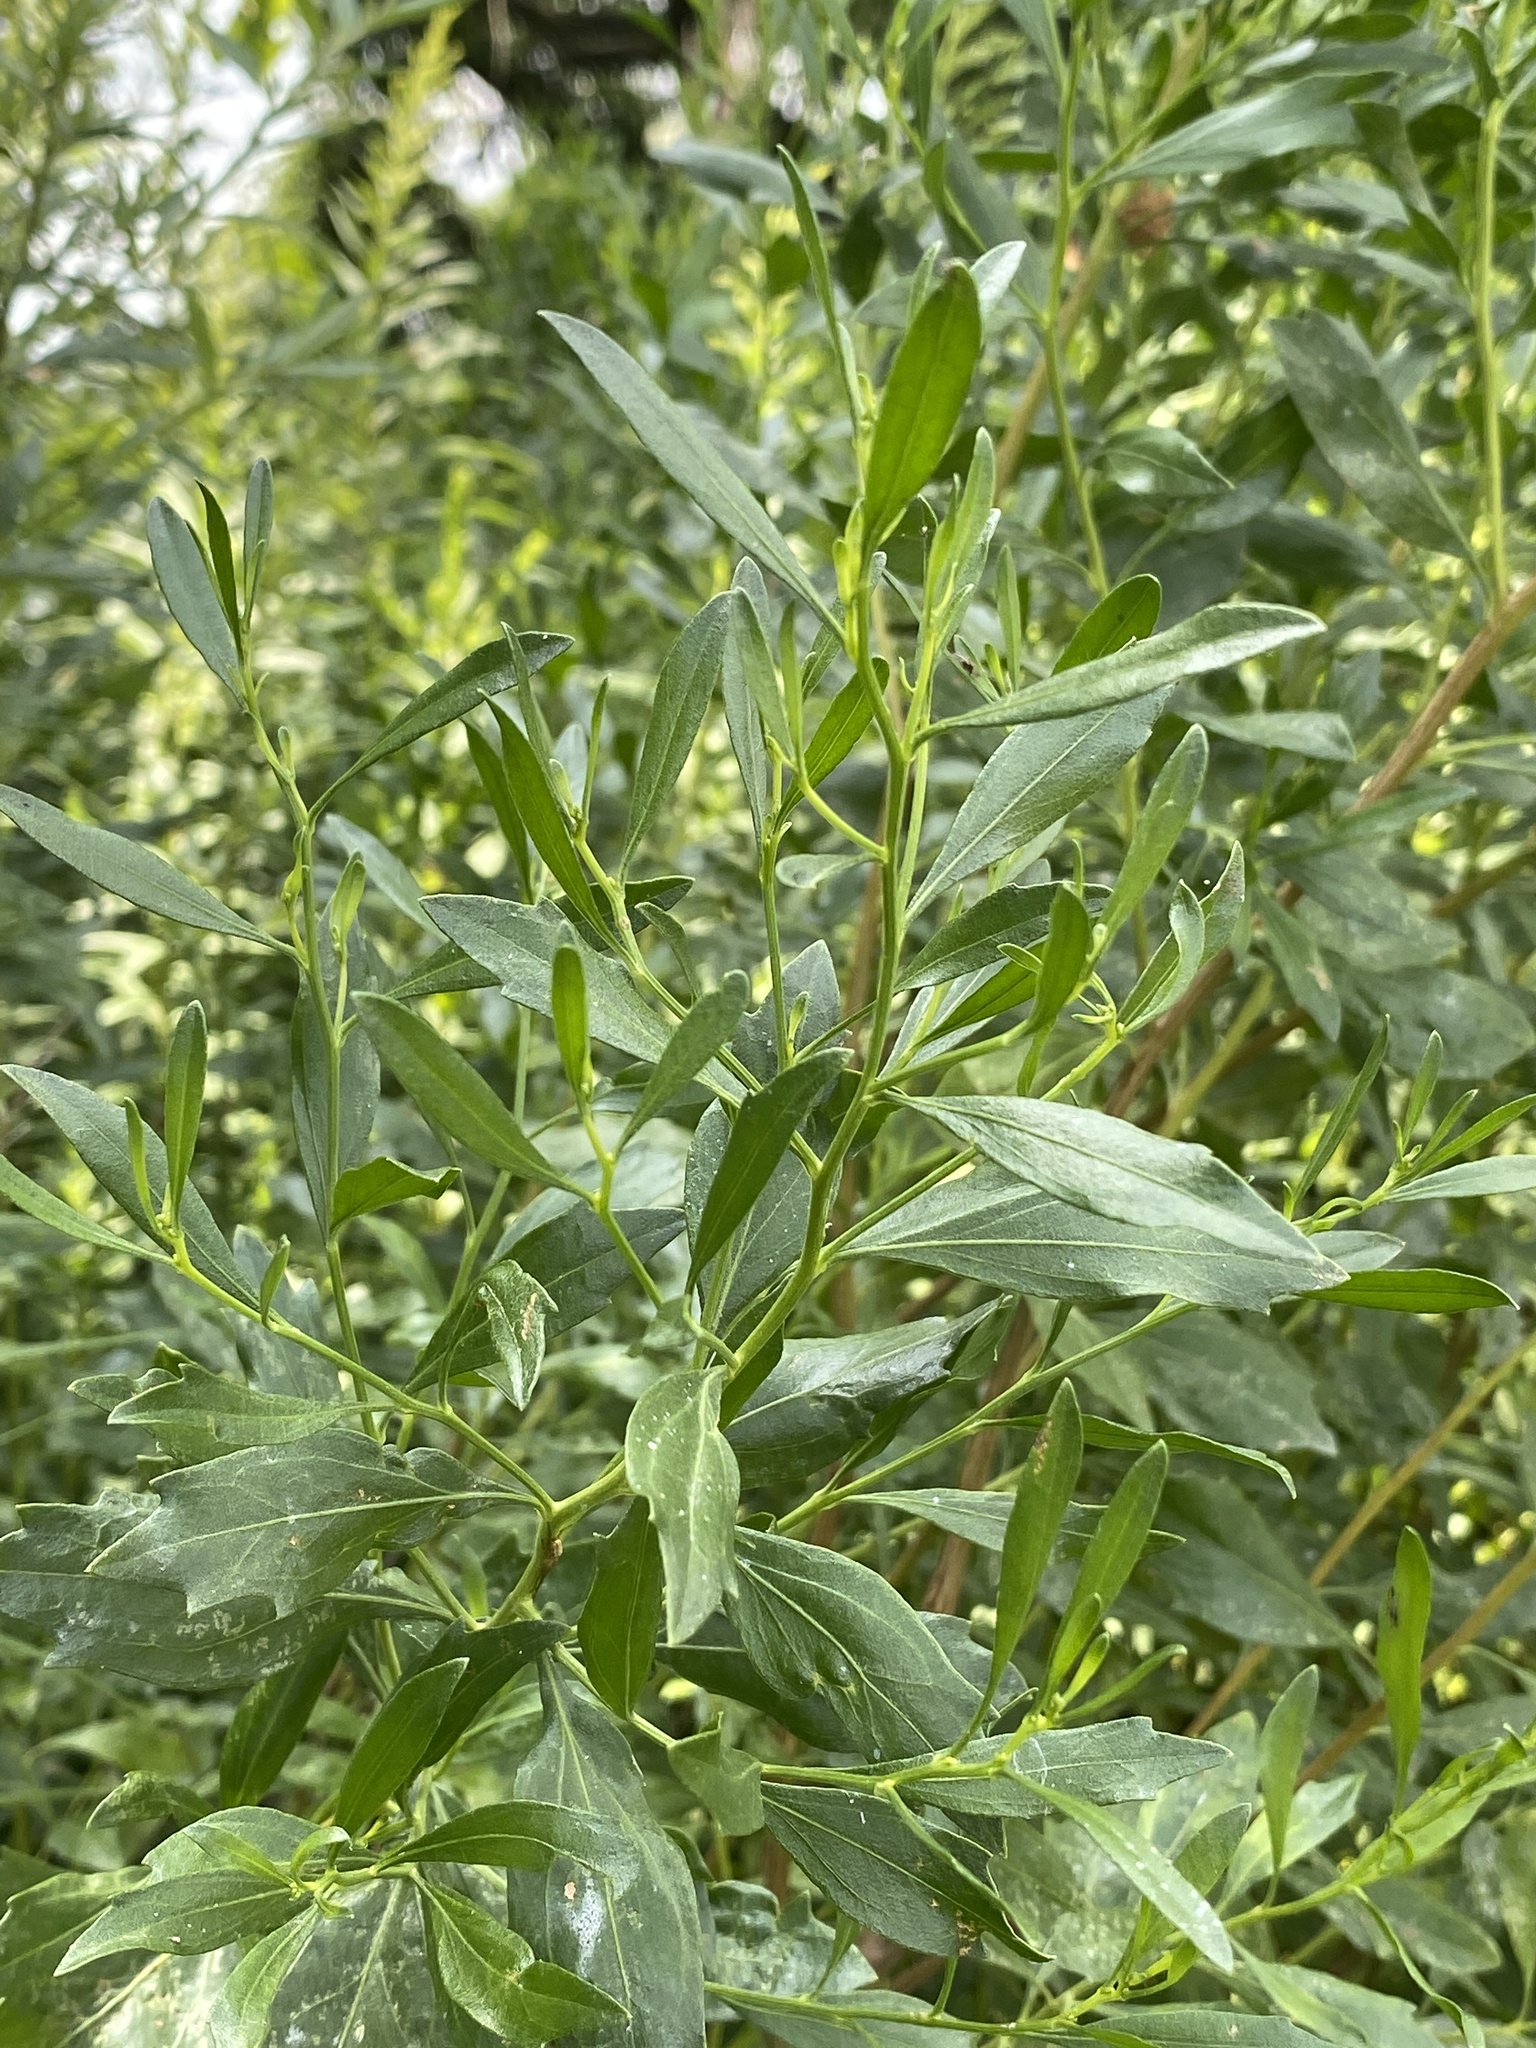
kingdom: Plantae
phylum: Tracheophyta
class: Magnoliopsida
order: Asterales
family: Asteraceae
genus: Baccharis
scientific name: Baccharis halimifolia
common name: Eastern baccharis
